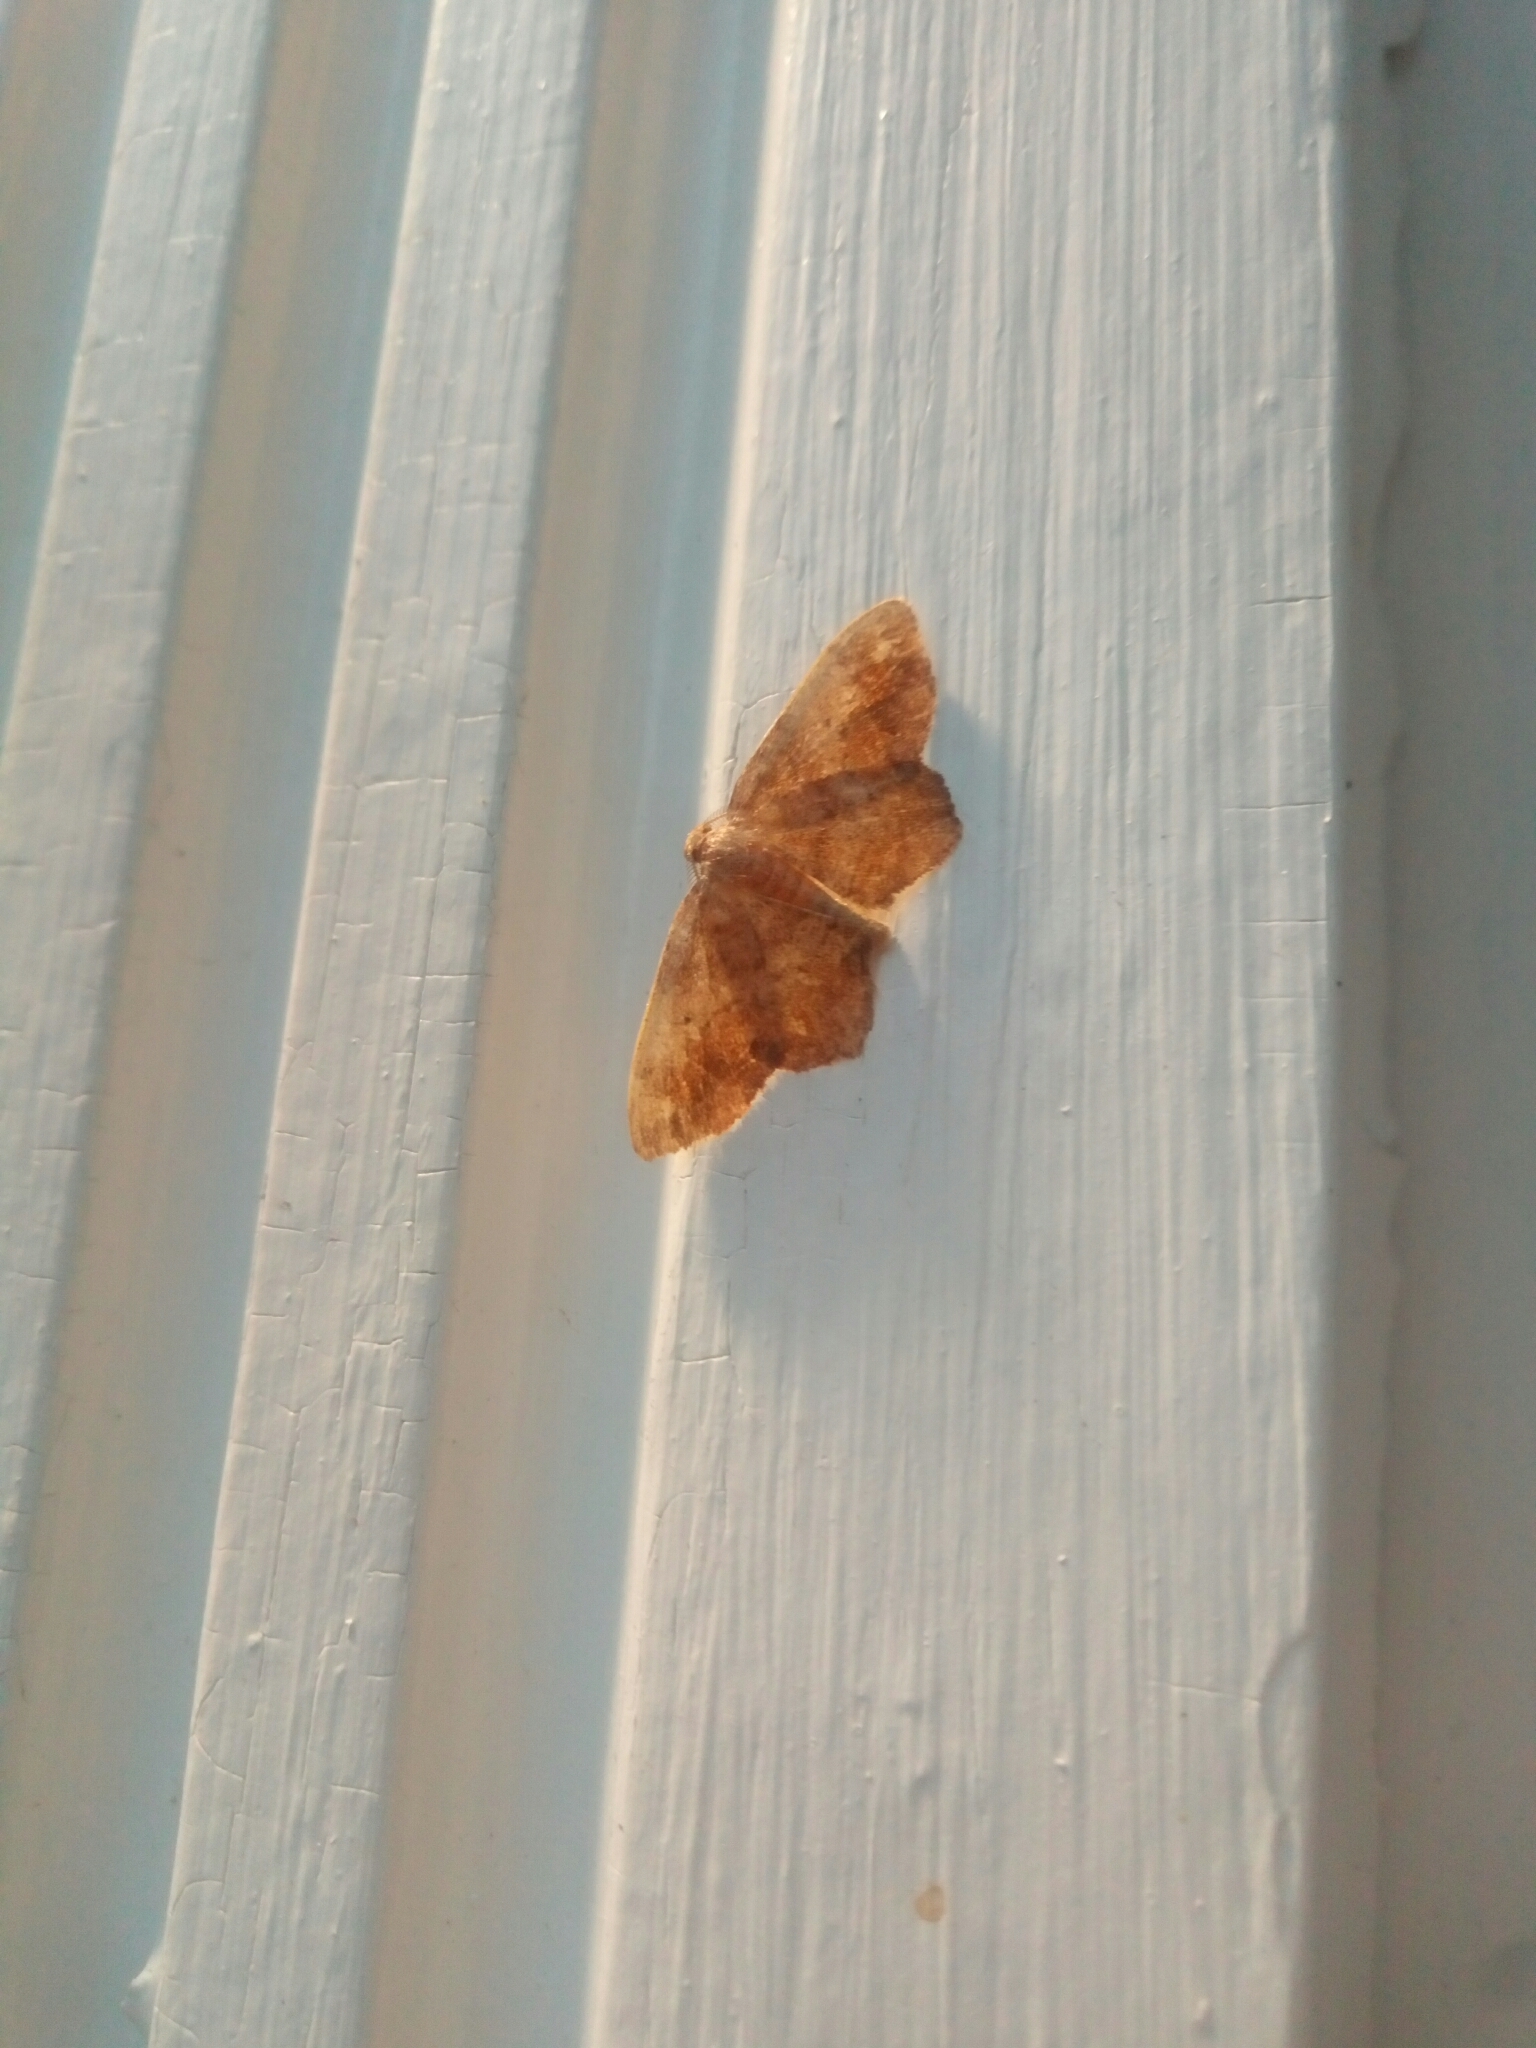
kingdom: Animalia
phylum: Arthropoda
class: Insecta
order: Lepidoptera
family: Geometridae
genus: Hypagyrtis
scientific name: Hypagyrtis
